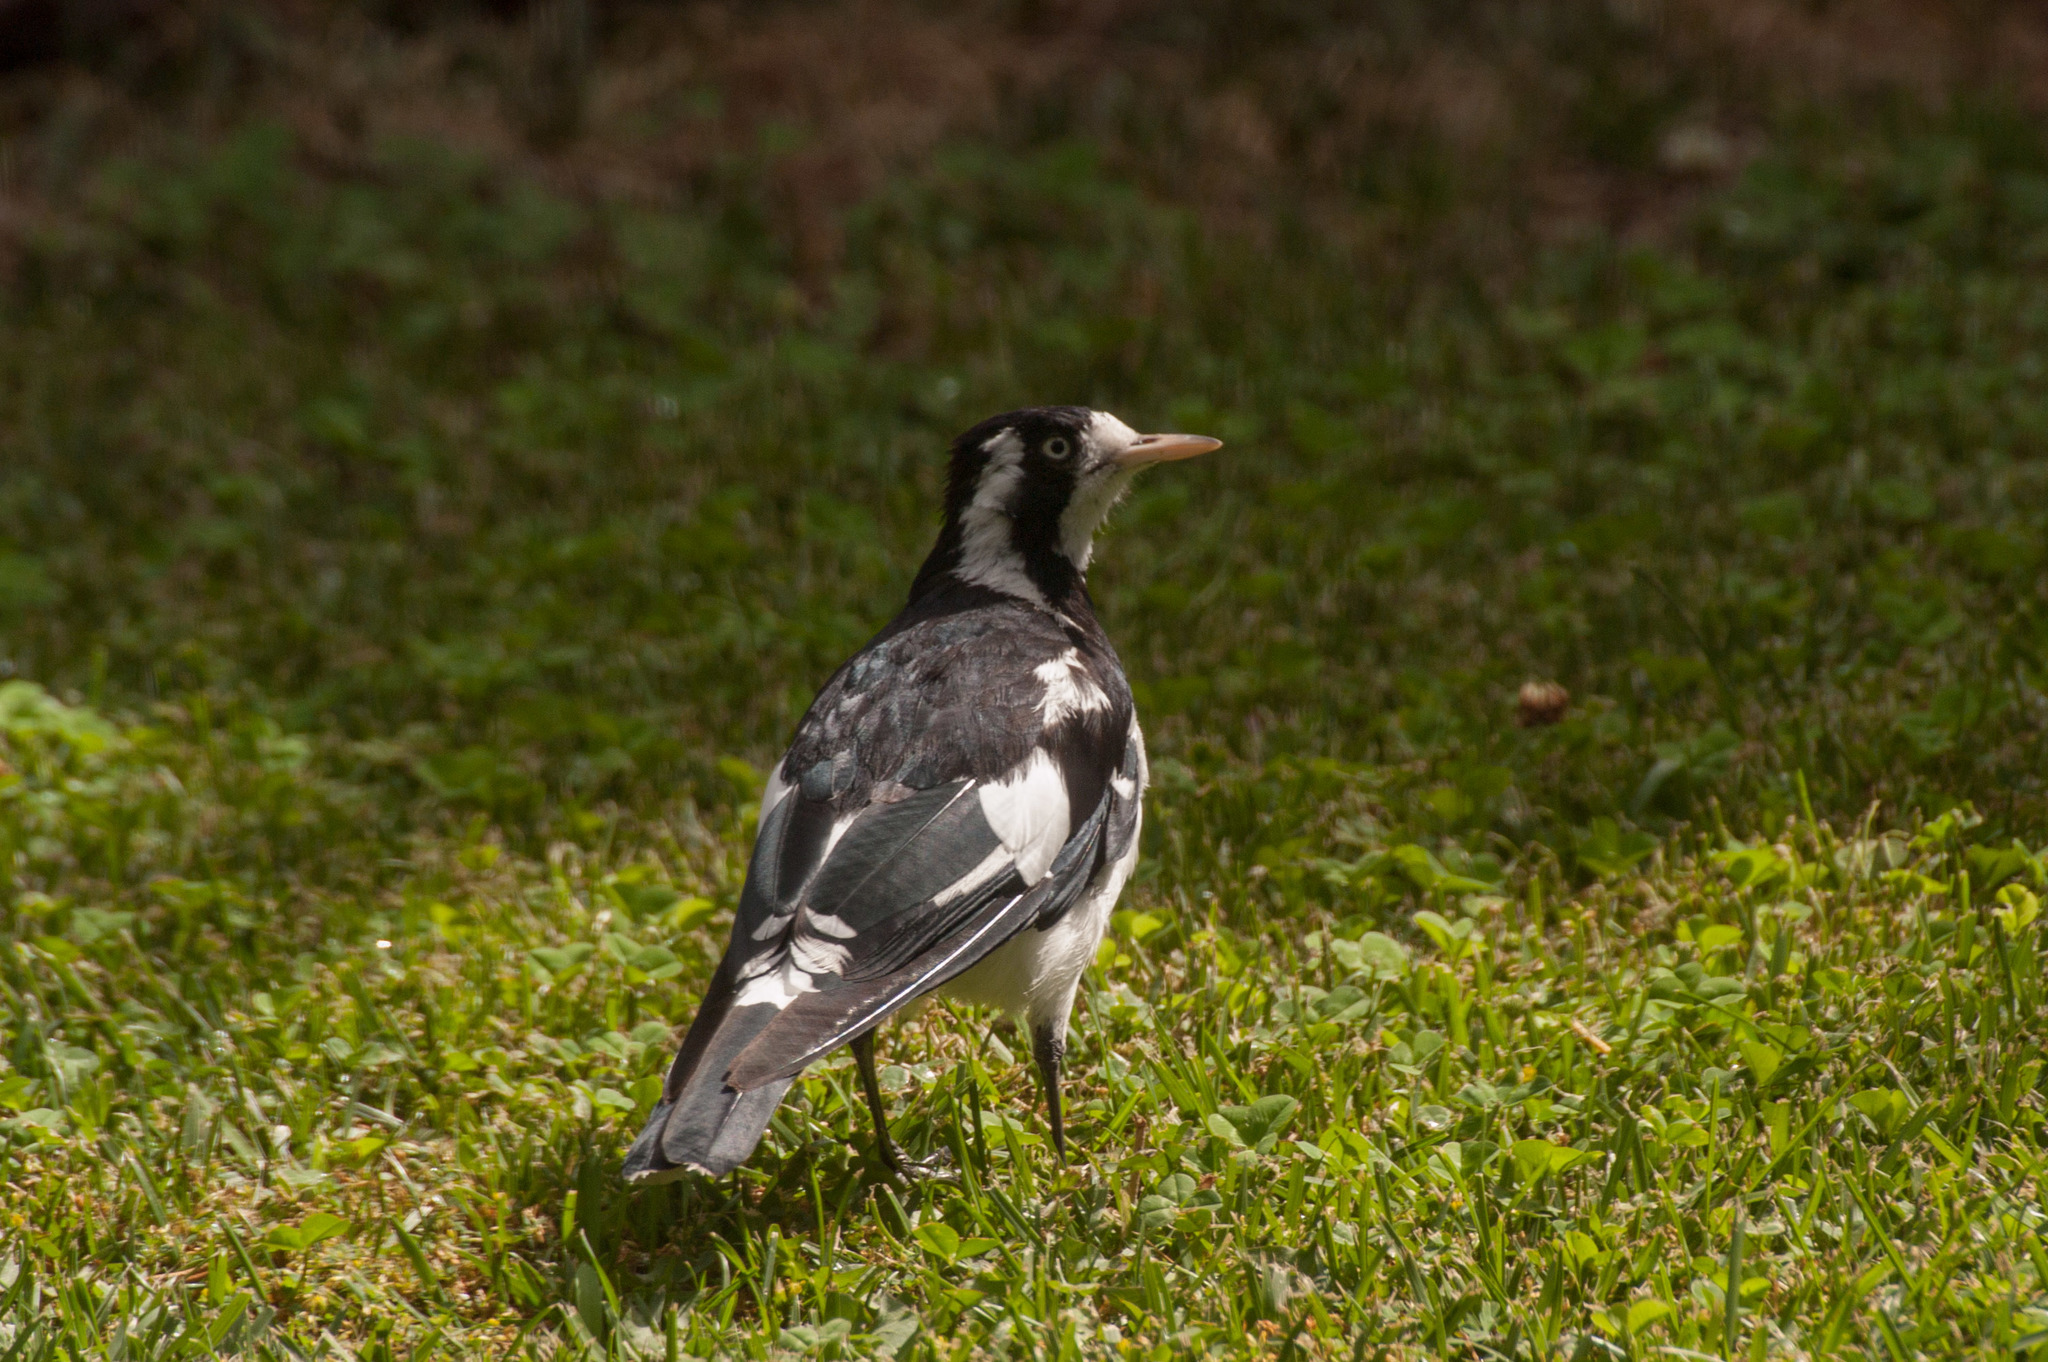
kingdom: Animalia
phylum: Chordata
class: Aves
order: Passeriformes
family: Monarchidae
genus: Grallina
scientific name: Grallina cyanoleuca
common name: Magpie-lark
